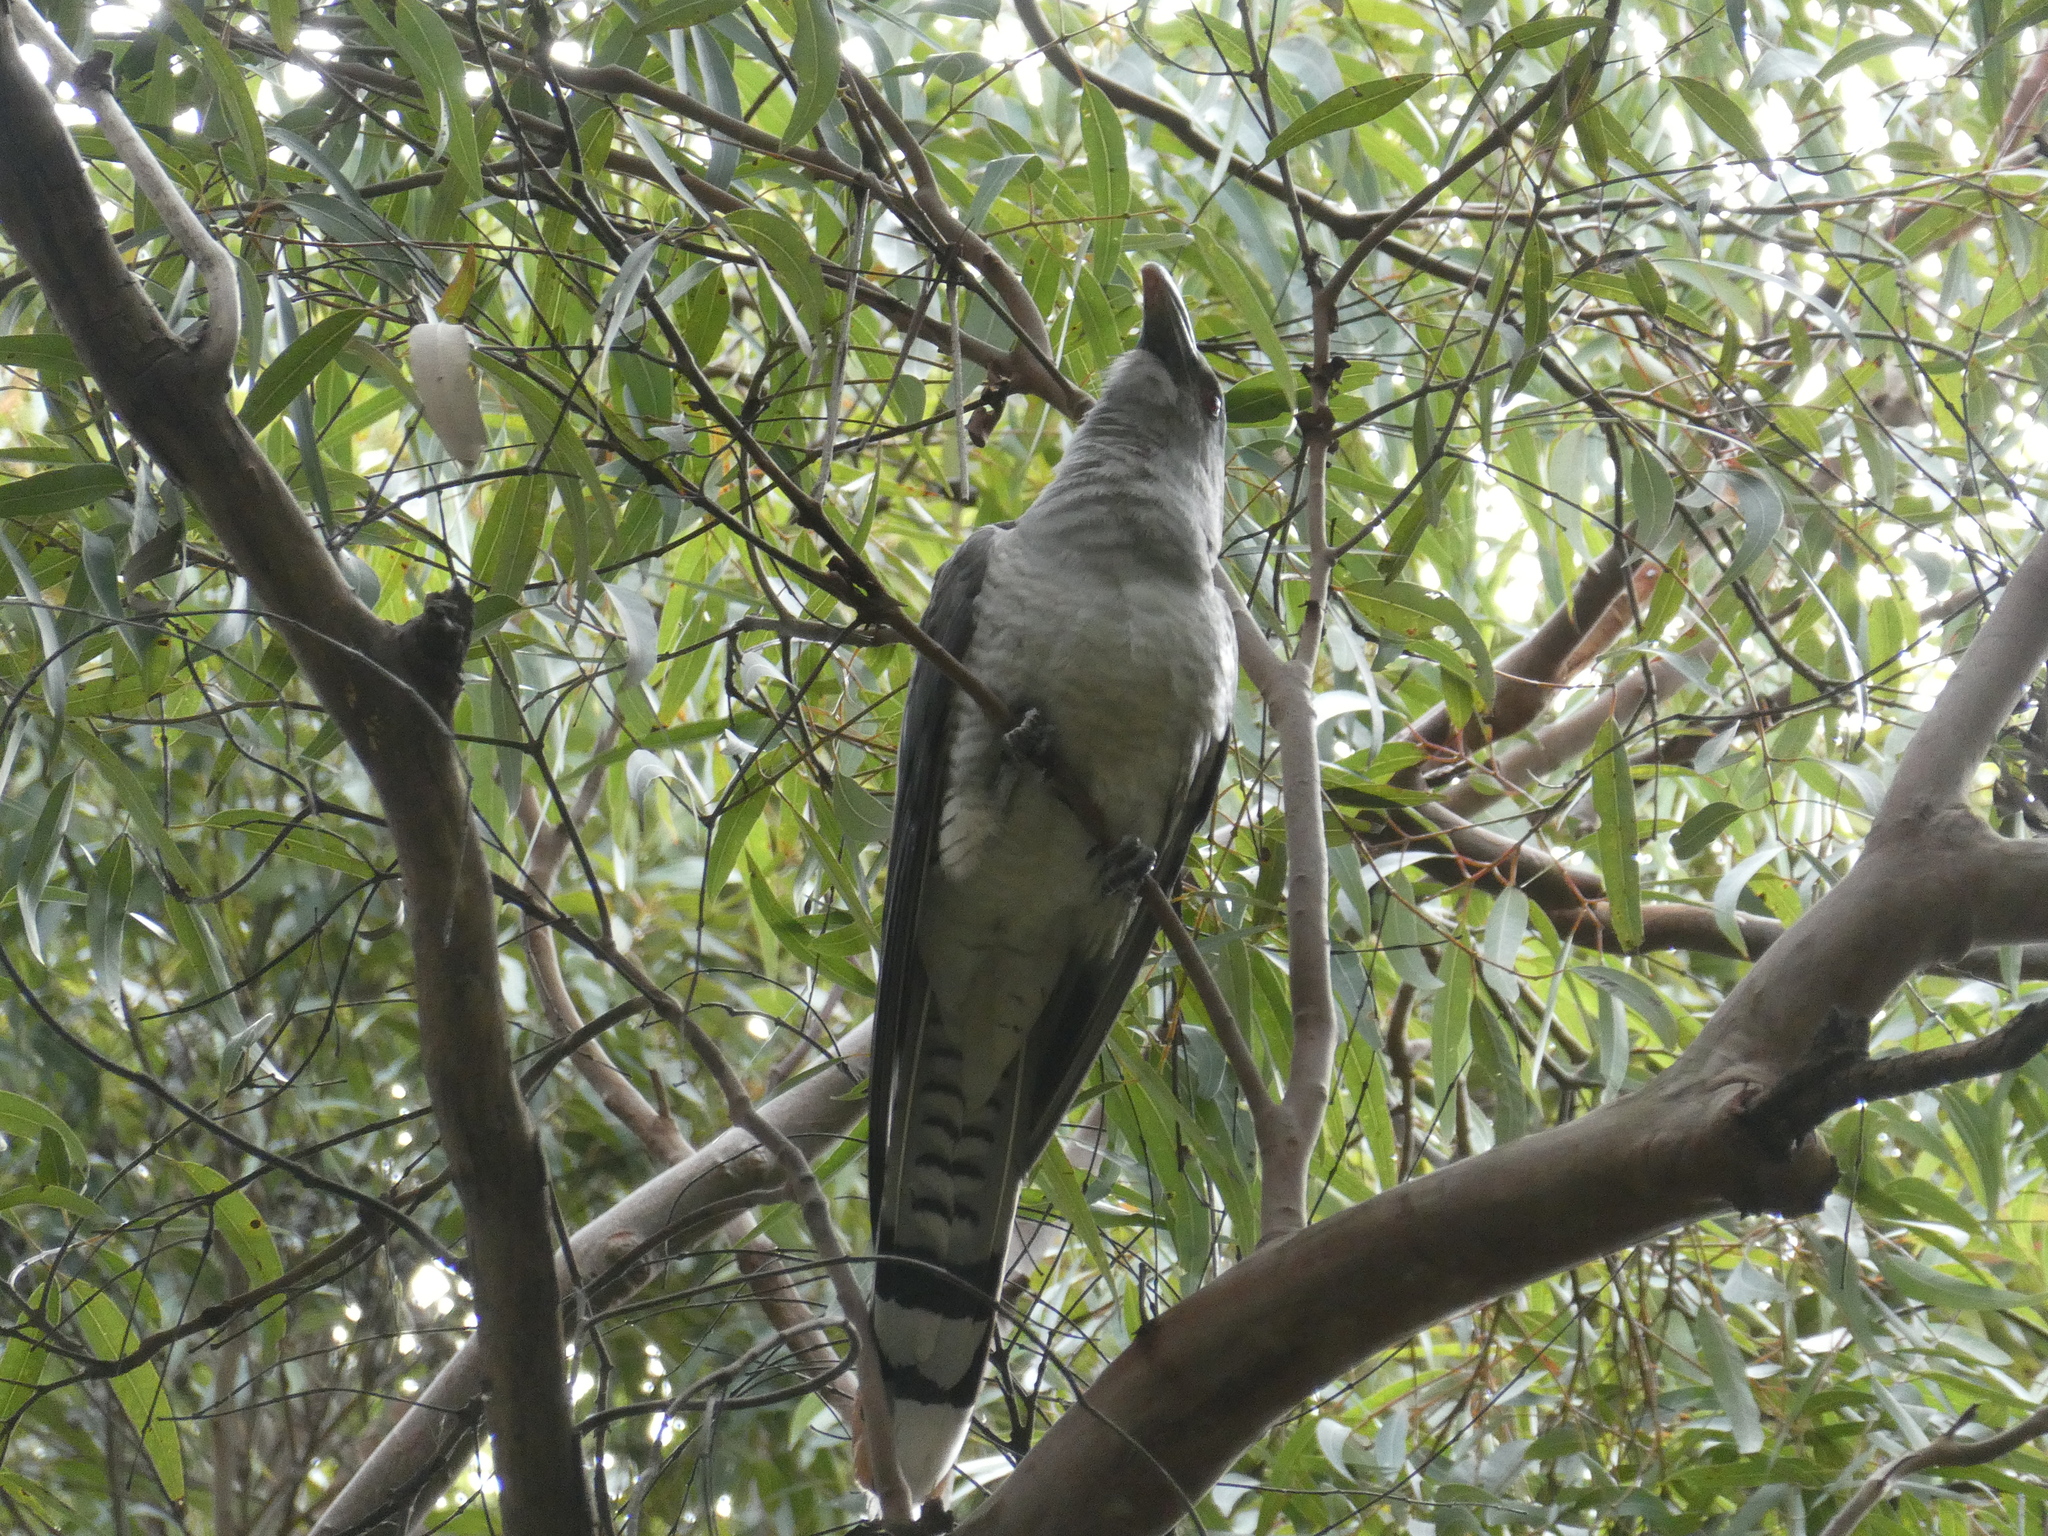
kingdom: Animalia
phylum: Chordata
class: Aves
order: Cuculiformes
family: Cuculidae
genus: Scythrops
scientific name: Scythrops novaehollandiae
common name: Channel-billed cuckoo
